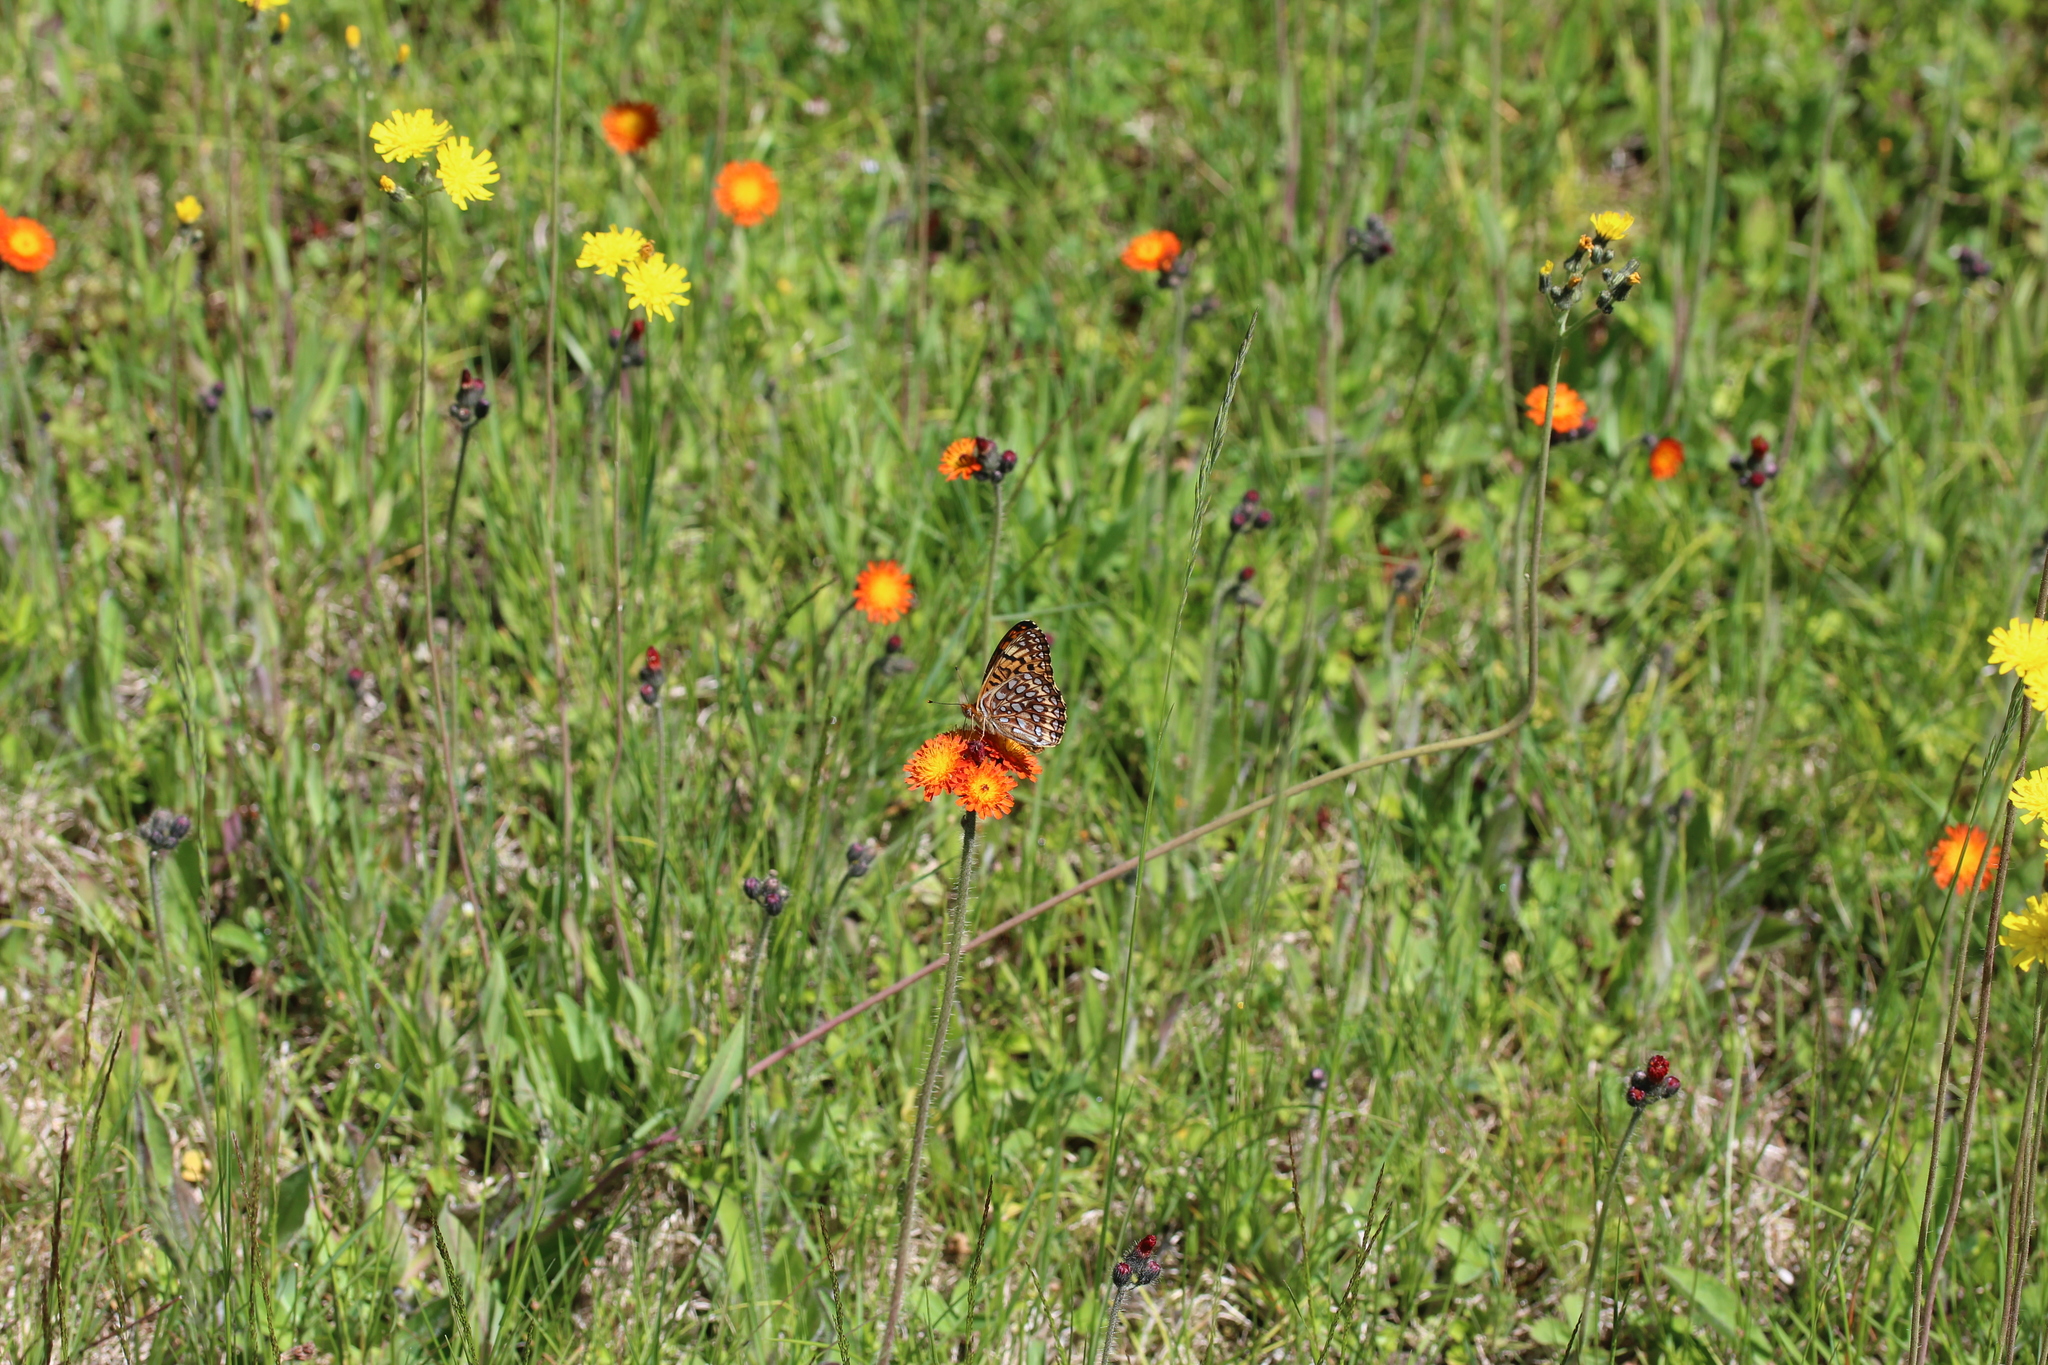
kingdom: Animalia
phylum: Arthropoda
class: Insecta
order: Lepidoptera
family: Nymphalidae
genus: Speyeria
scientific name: Speyeria atlantis
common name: Atlantis fritillary
